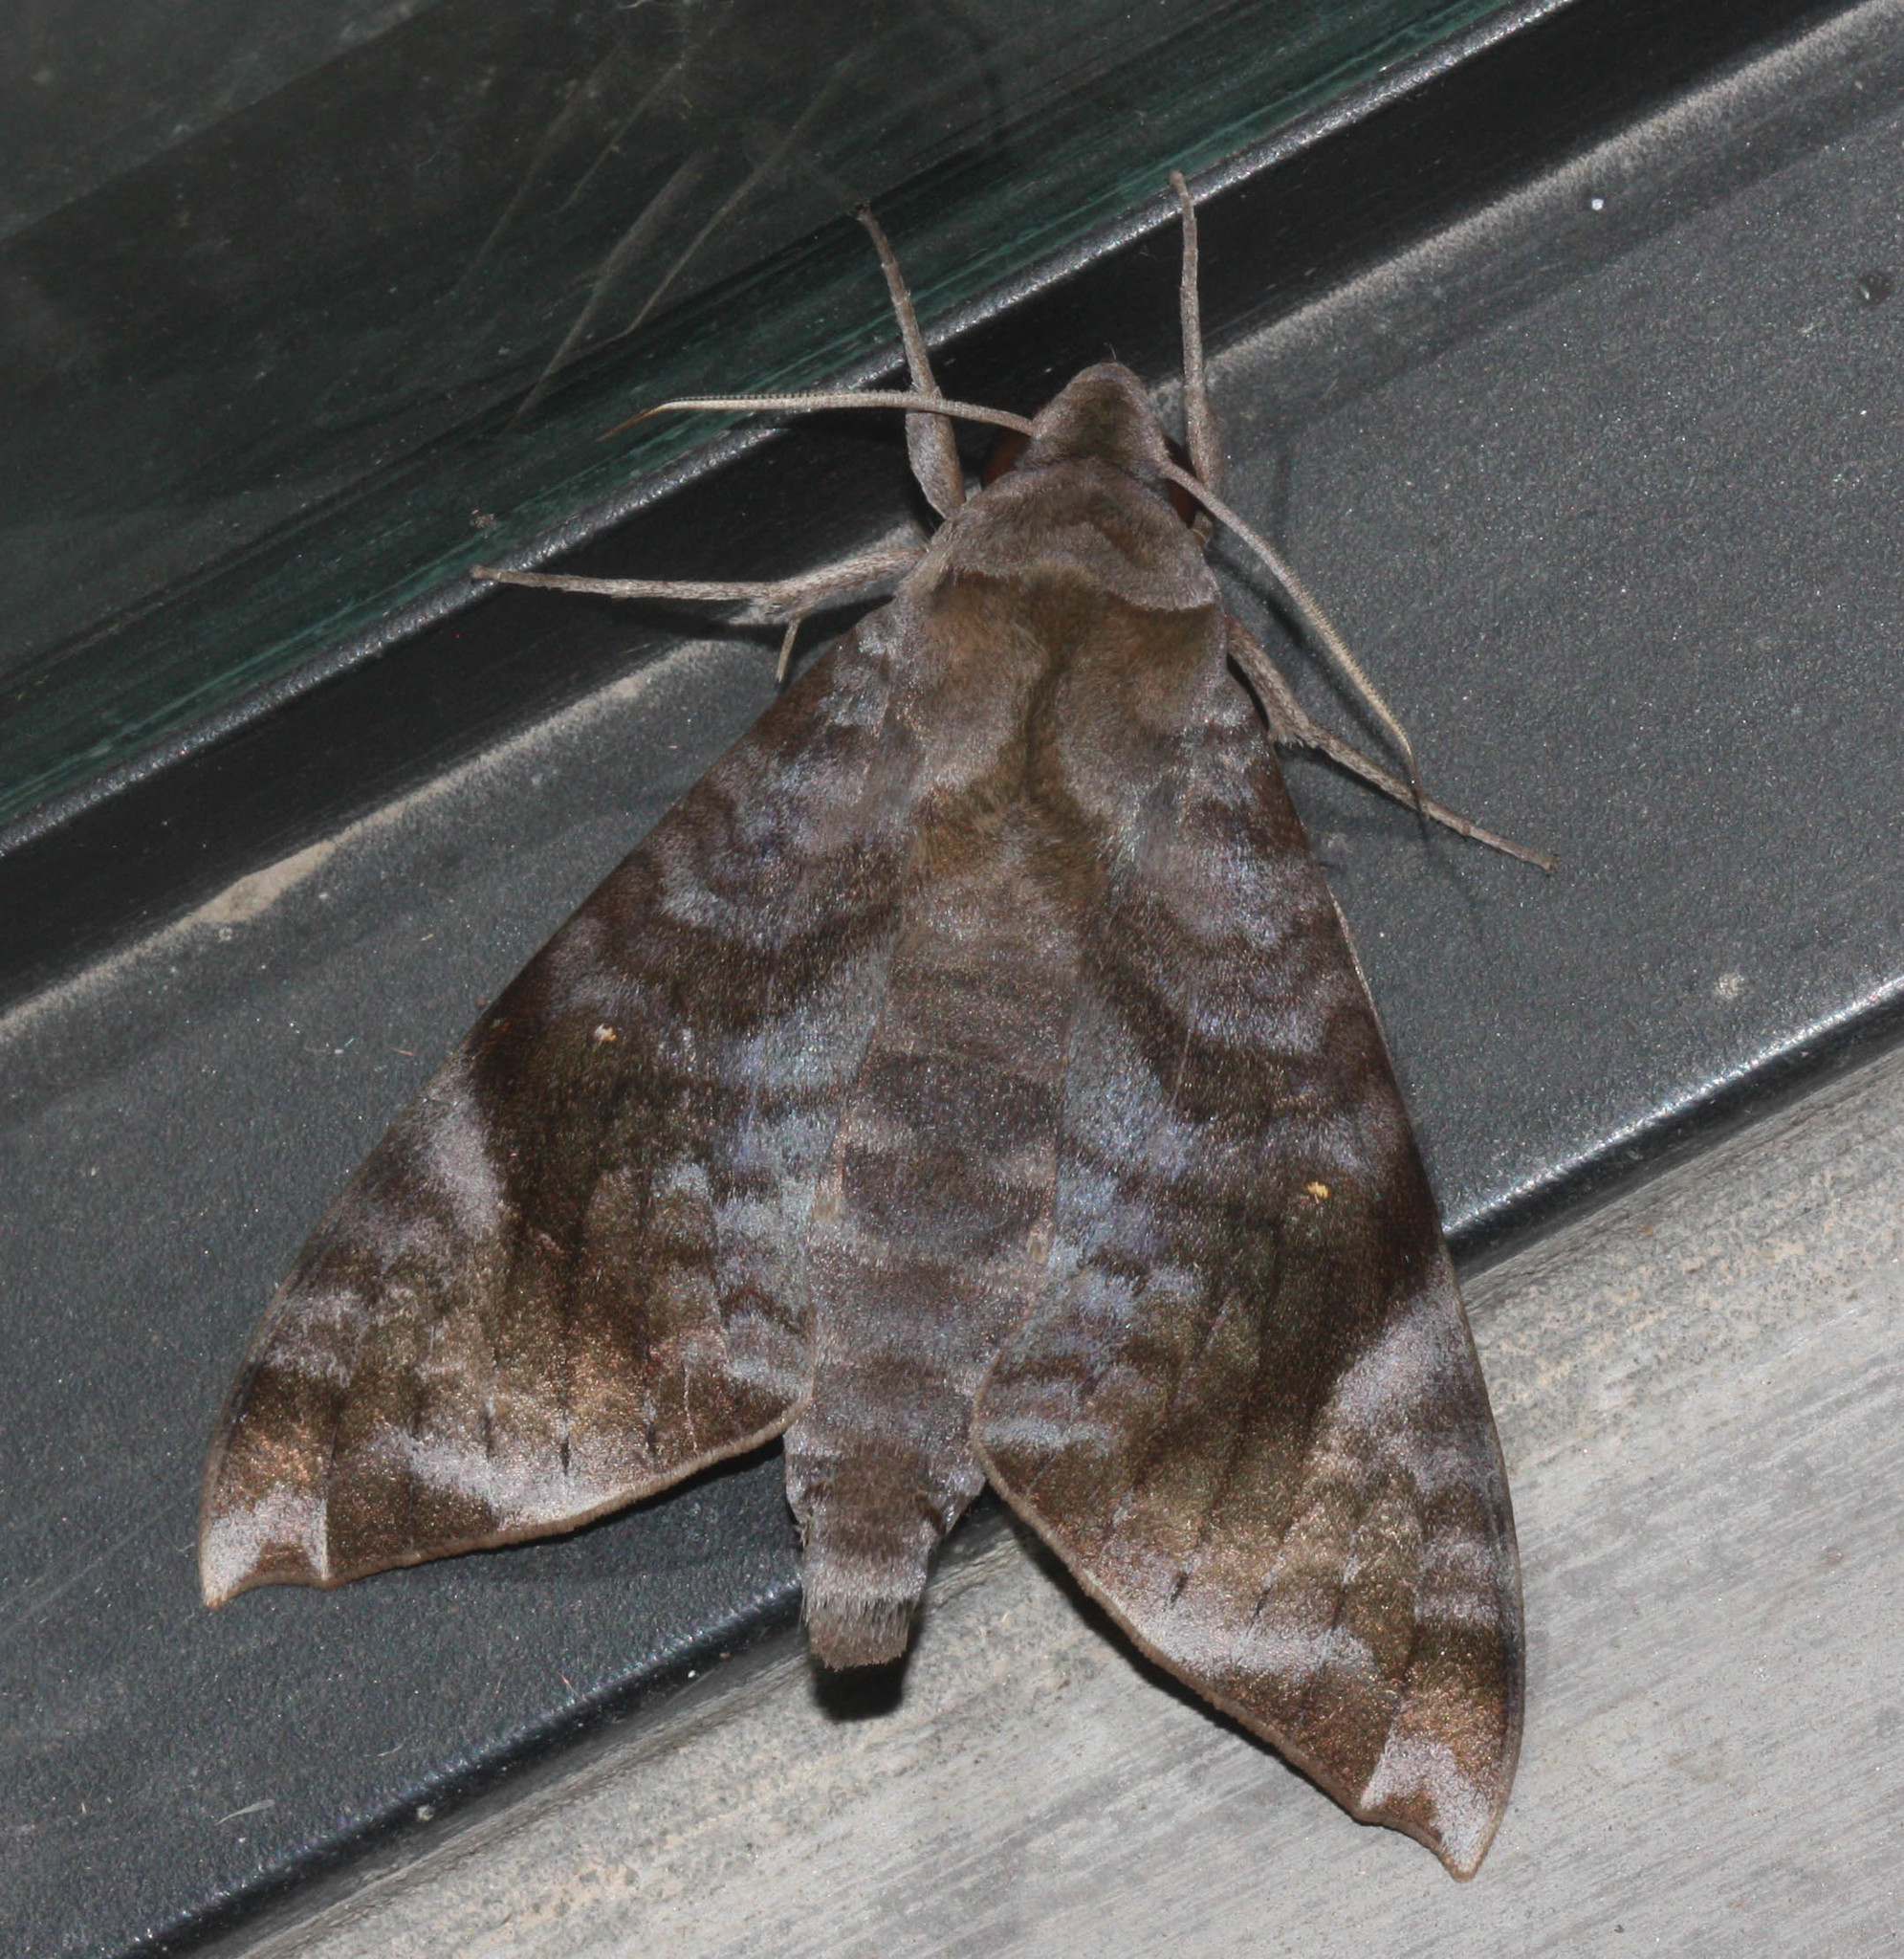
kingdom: Animalia
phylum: Arthropoda
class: Insecta
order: Lepidoptera
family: Sphingidae
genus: Acosmeryx
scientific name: Acosmeryx pseudonaga
